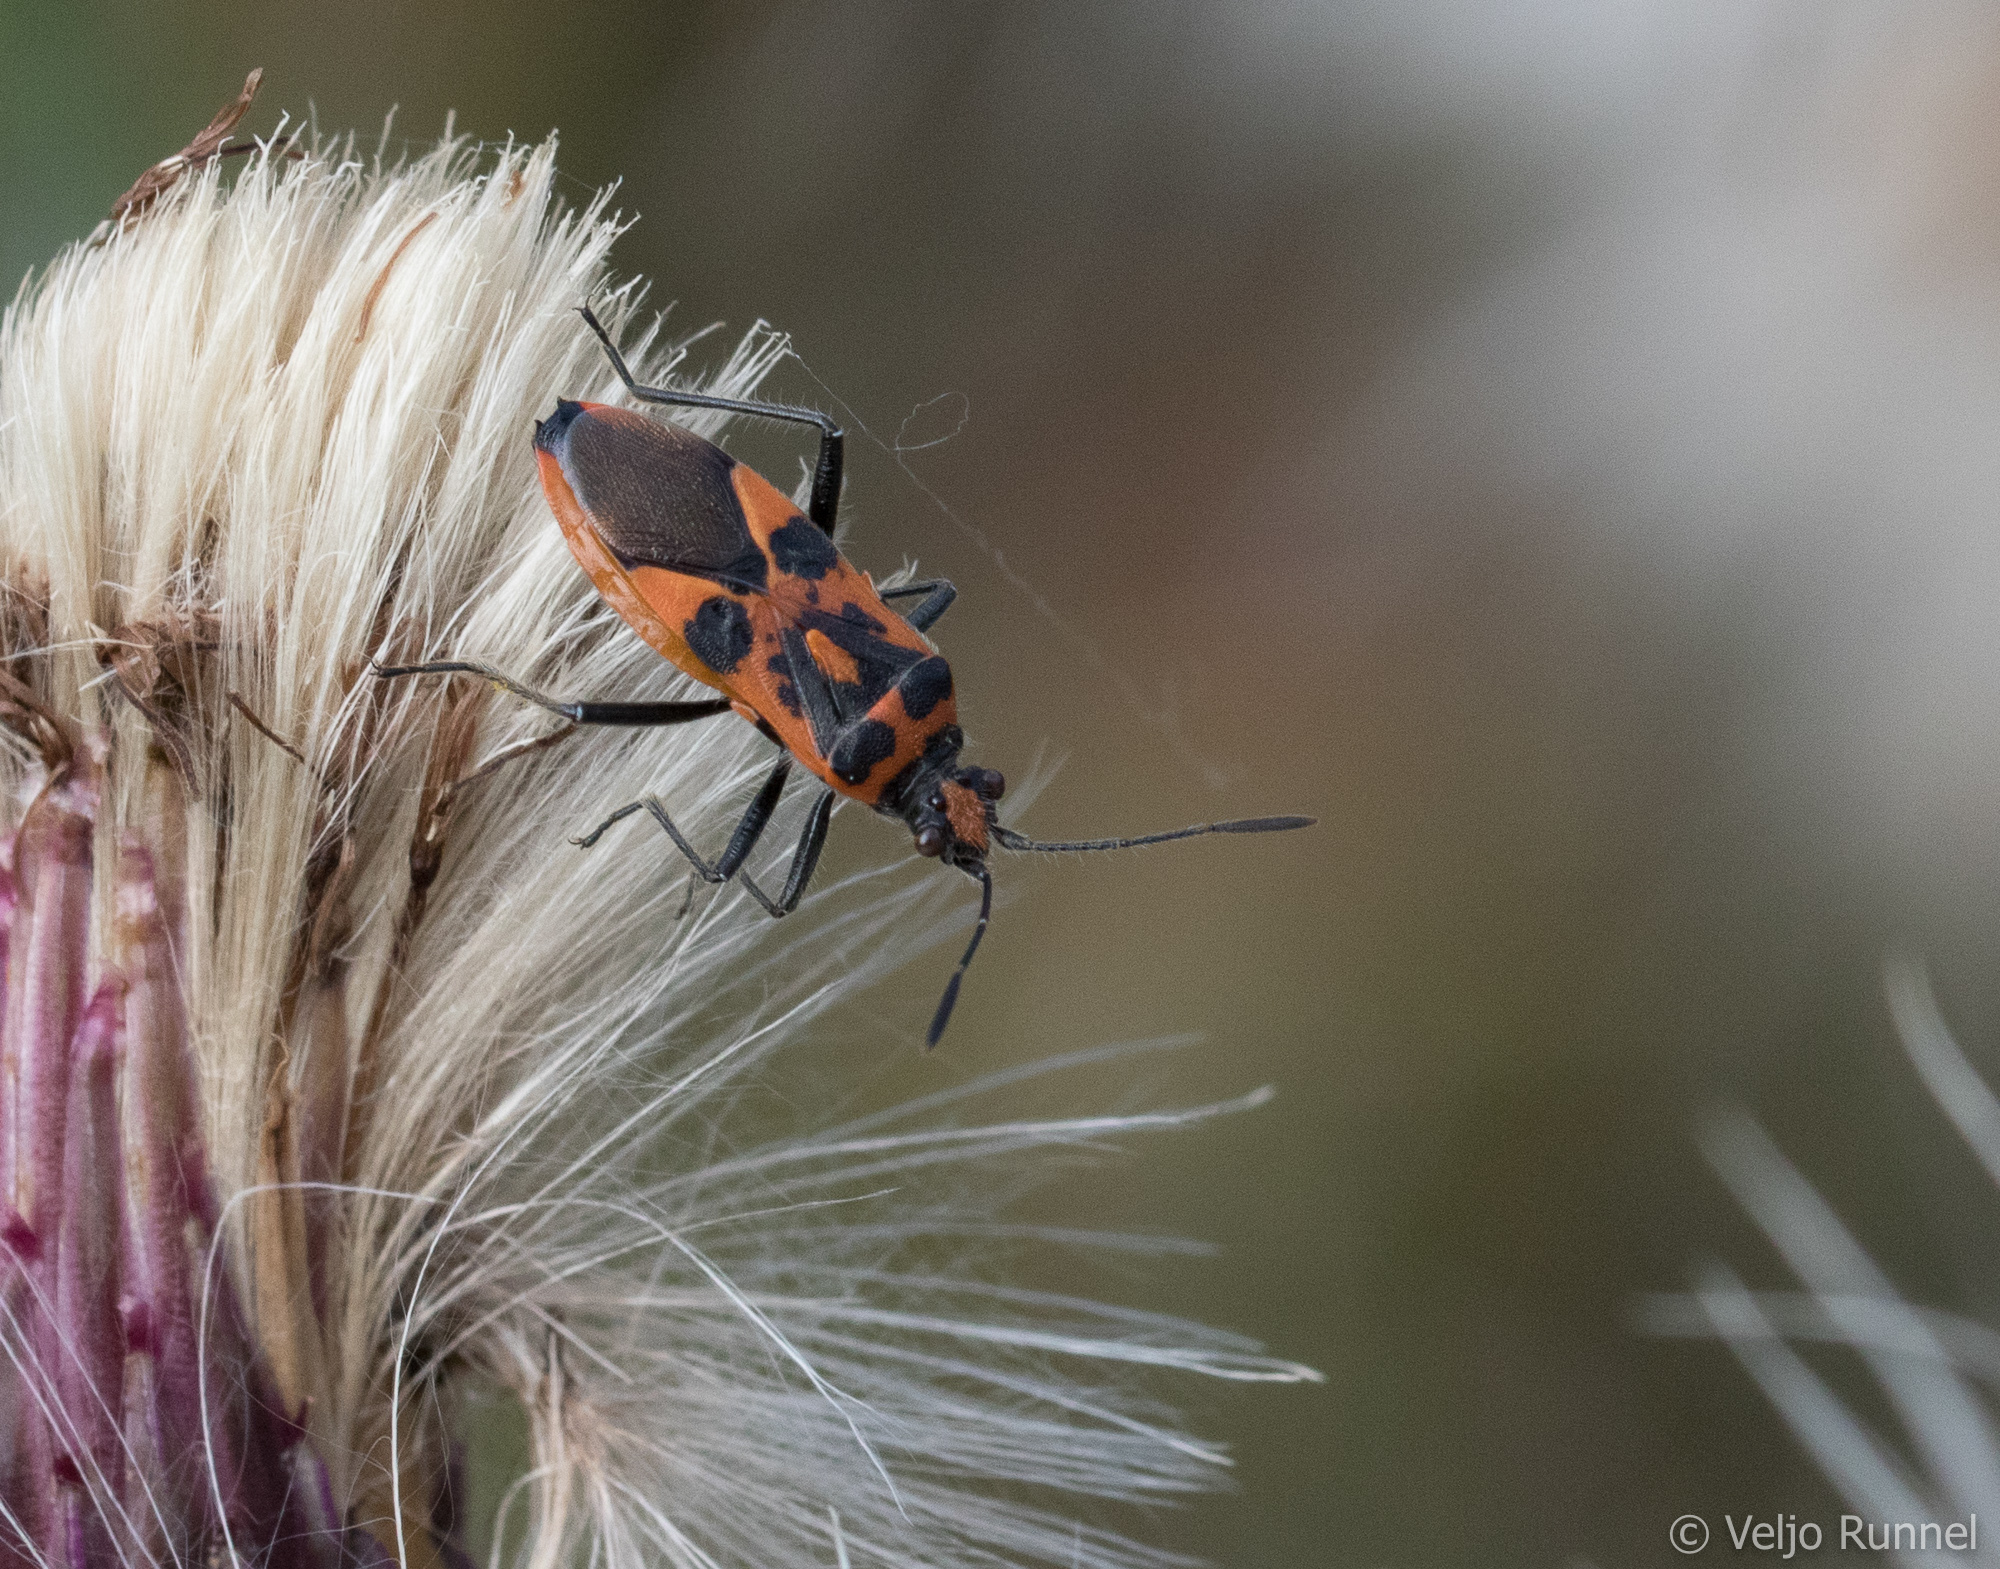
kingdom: Animalia
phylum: Arthropoda
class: Insecta
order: Hemiptera
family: Rhopalidae
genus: Corizus
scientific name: Corizus hyoscyami
